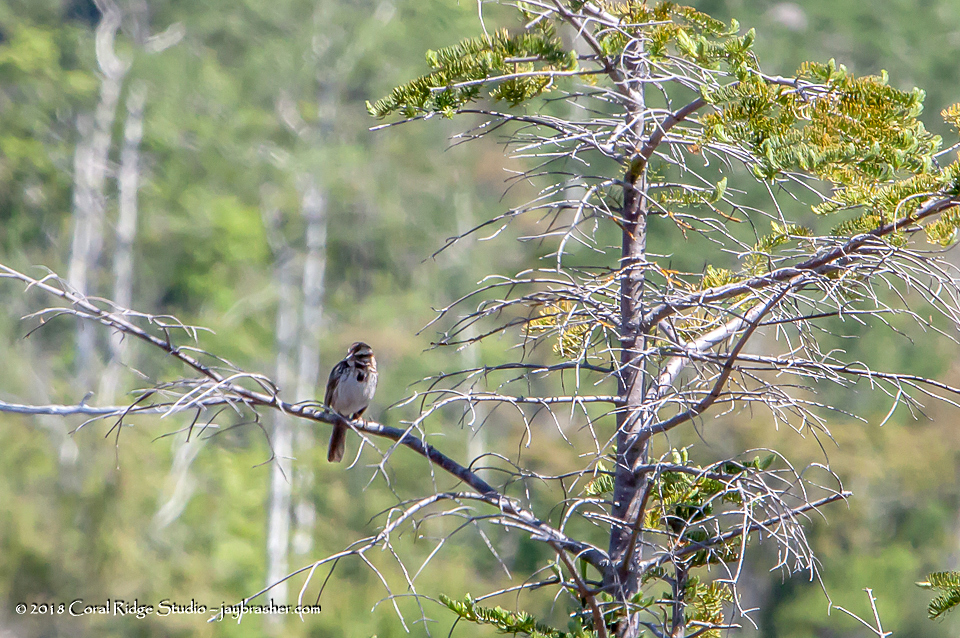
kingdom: Animalia
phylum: Chordata
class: Aves
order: Passeriformes
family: Passerellidae
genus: Melospiza
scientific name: Melospiza melodia
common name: Song sparrow
